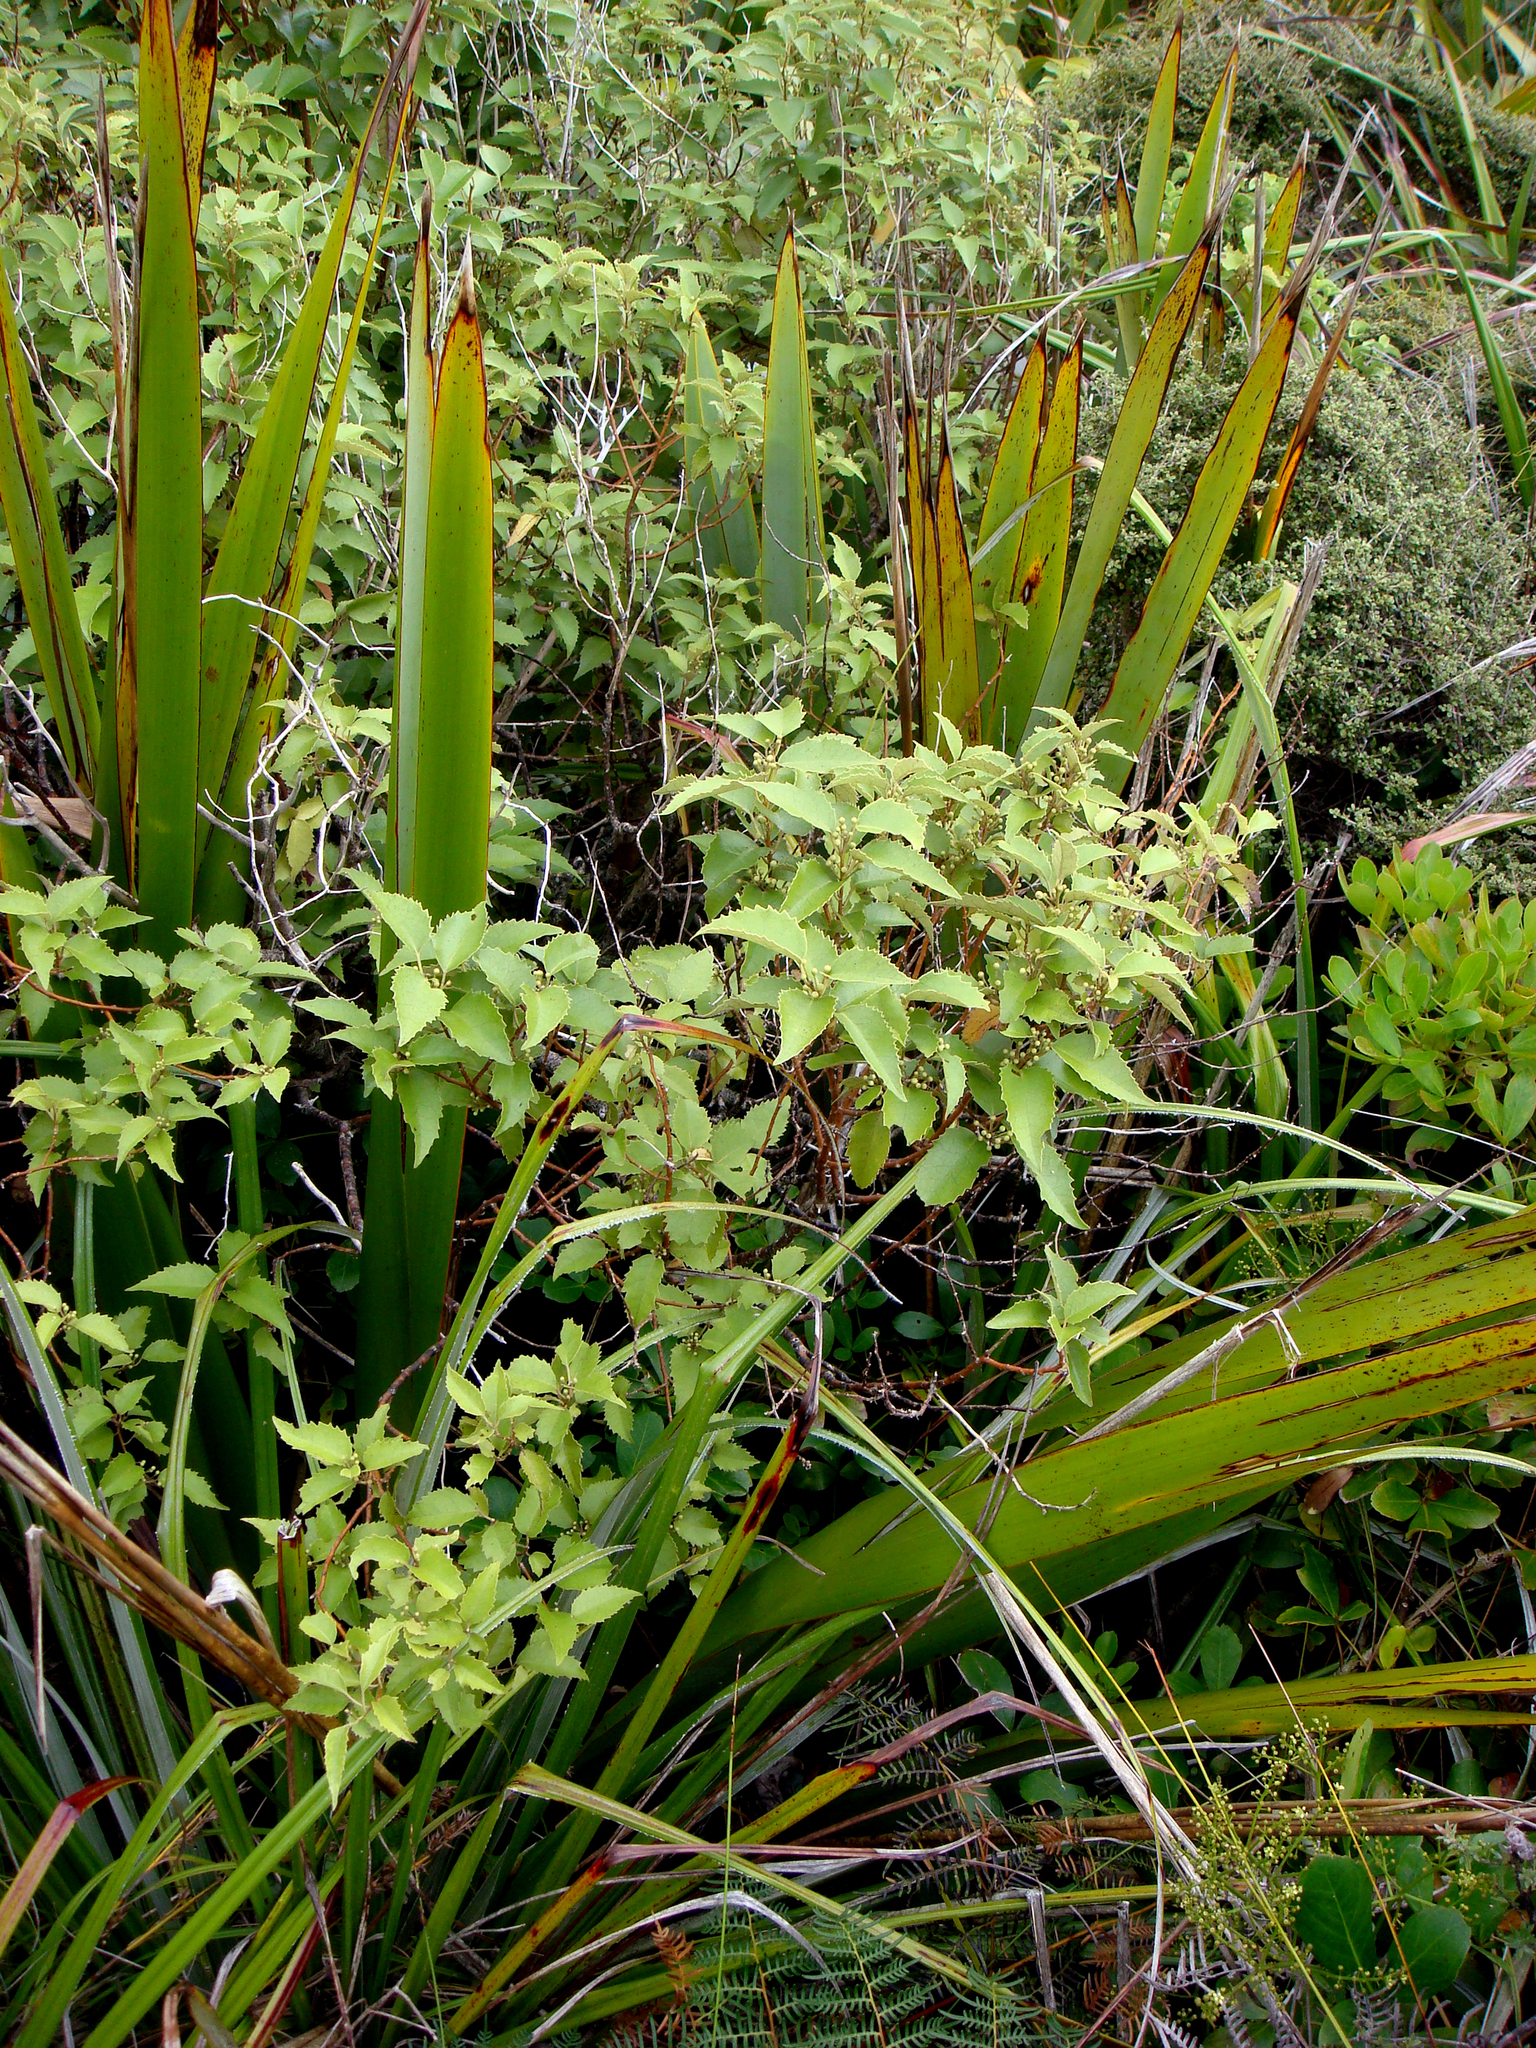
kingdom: Plantae
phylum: Tracheophyta
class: Magnoliopsida
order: Malvales
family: Malvaceae
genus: Hoheria
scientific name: Hoheria populnea
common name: Lacebark
